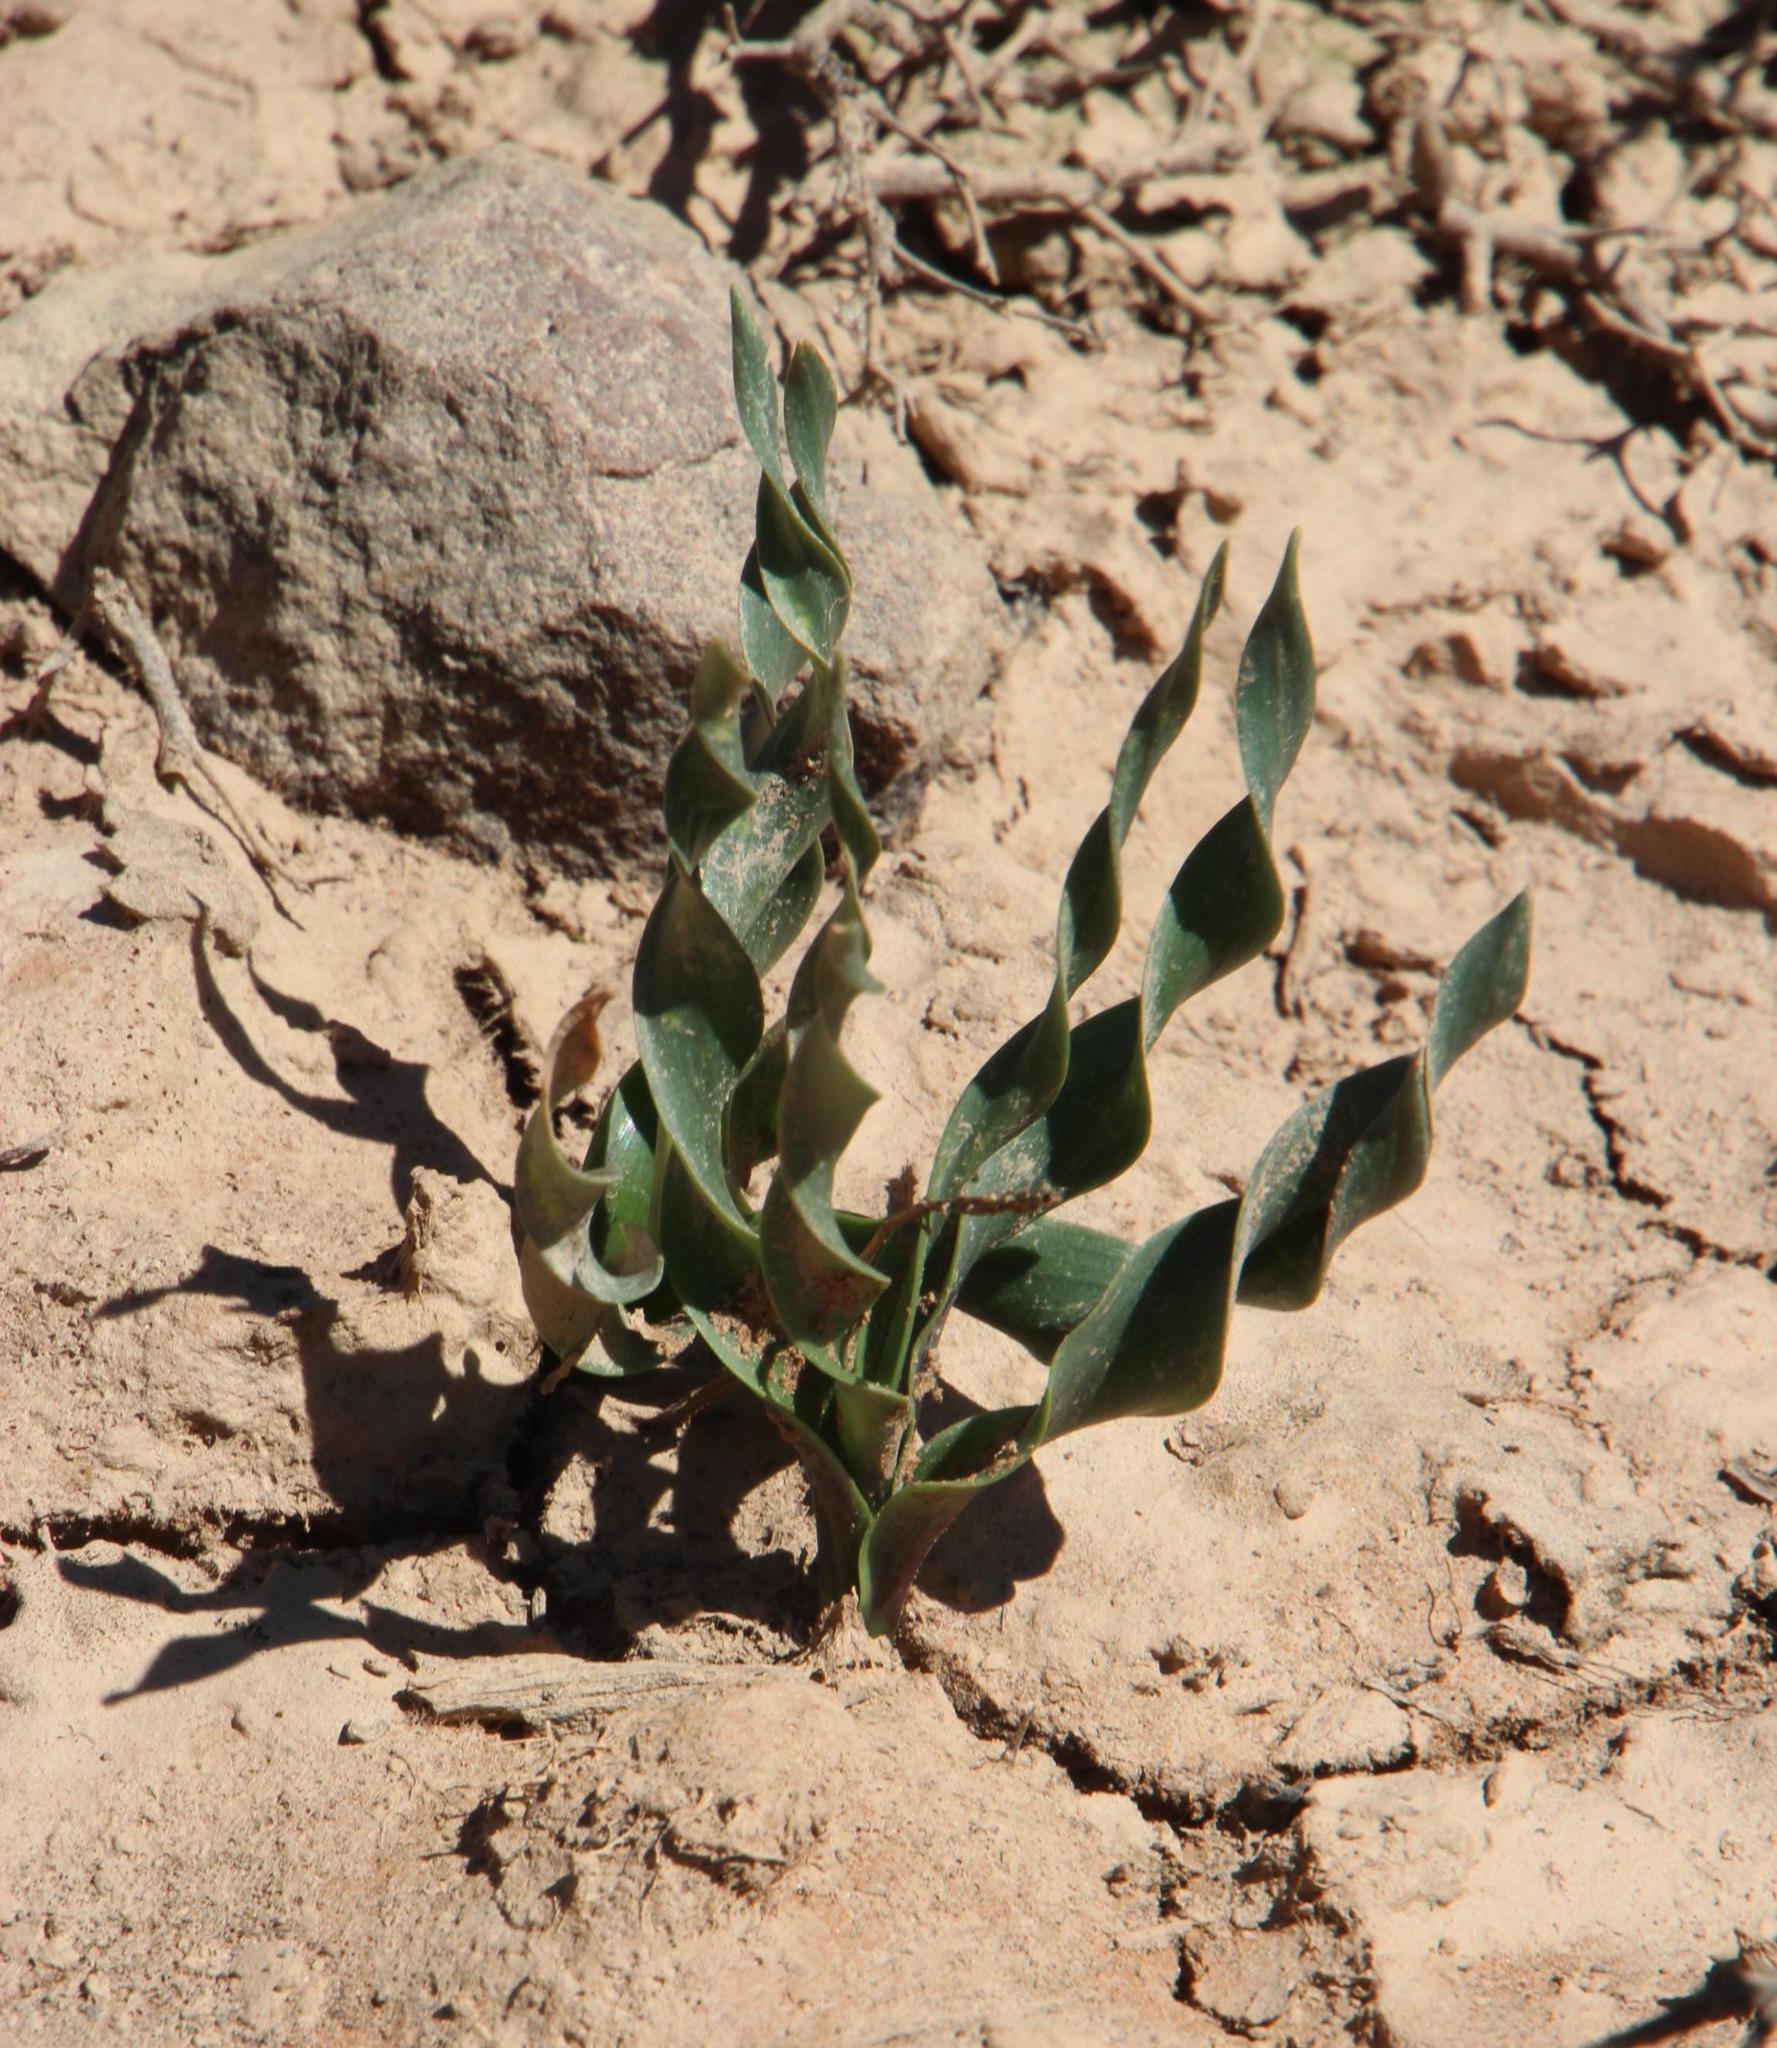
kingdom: Plantae
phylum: Tracheophyta
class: Liliopsida
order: Asparagales
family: Asparagaceae
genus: Fusifilum
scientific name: Fusifilum physodes
